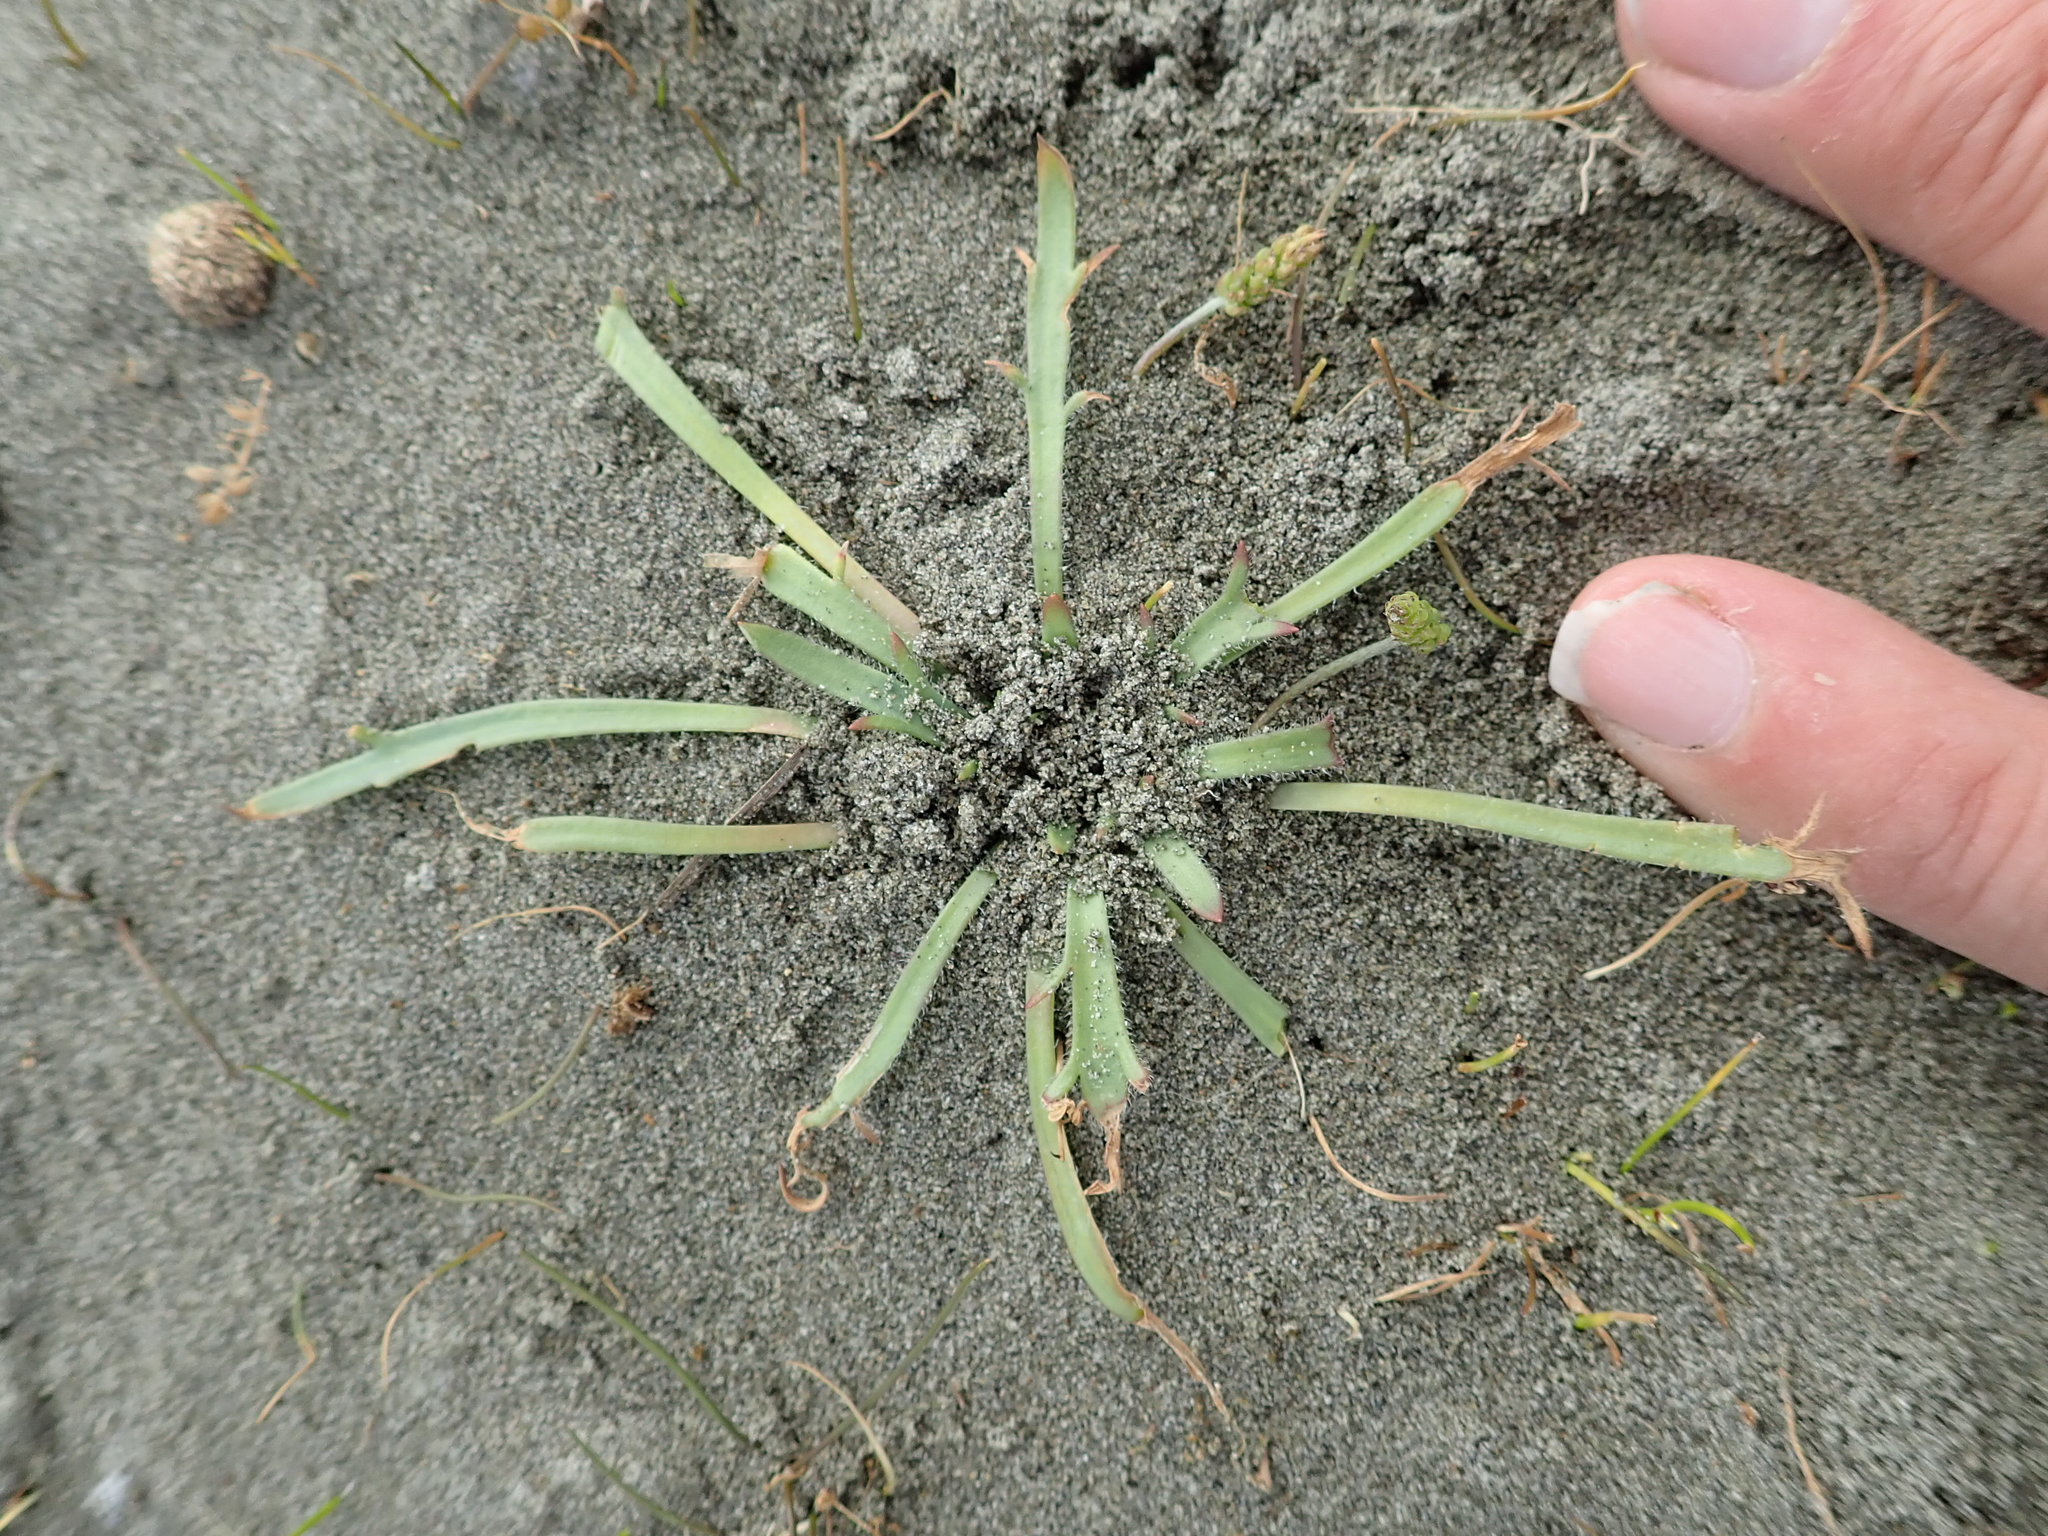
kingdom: Plantae
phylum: Tracheophyta
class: Magnoliopsida
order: Lamiales
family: Plantaginaceae
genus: Plantago
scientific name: Plantago coronopus
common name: Buck's-horn plantain
